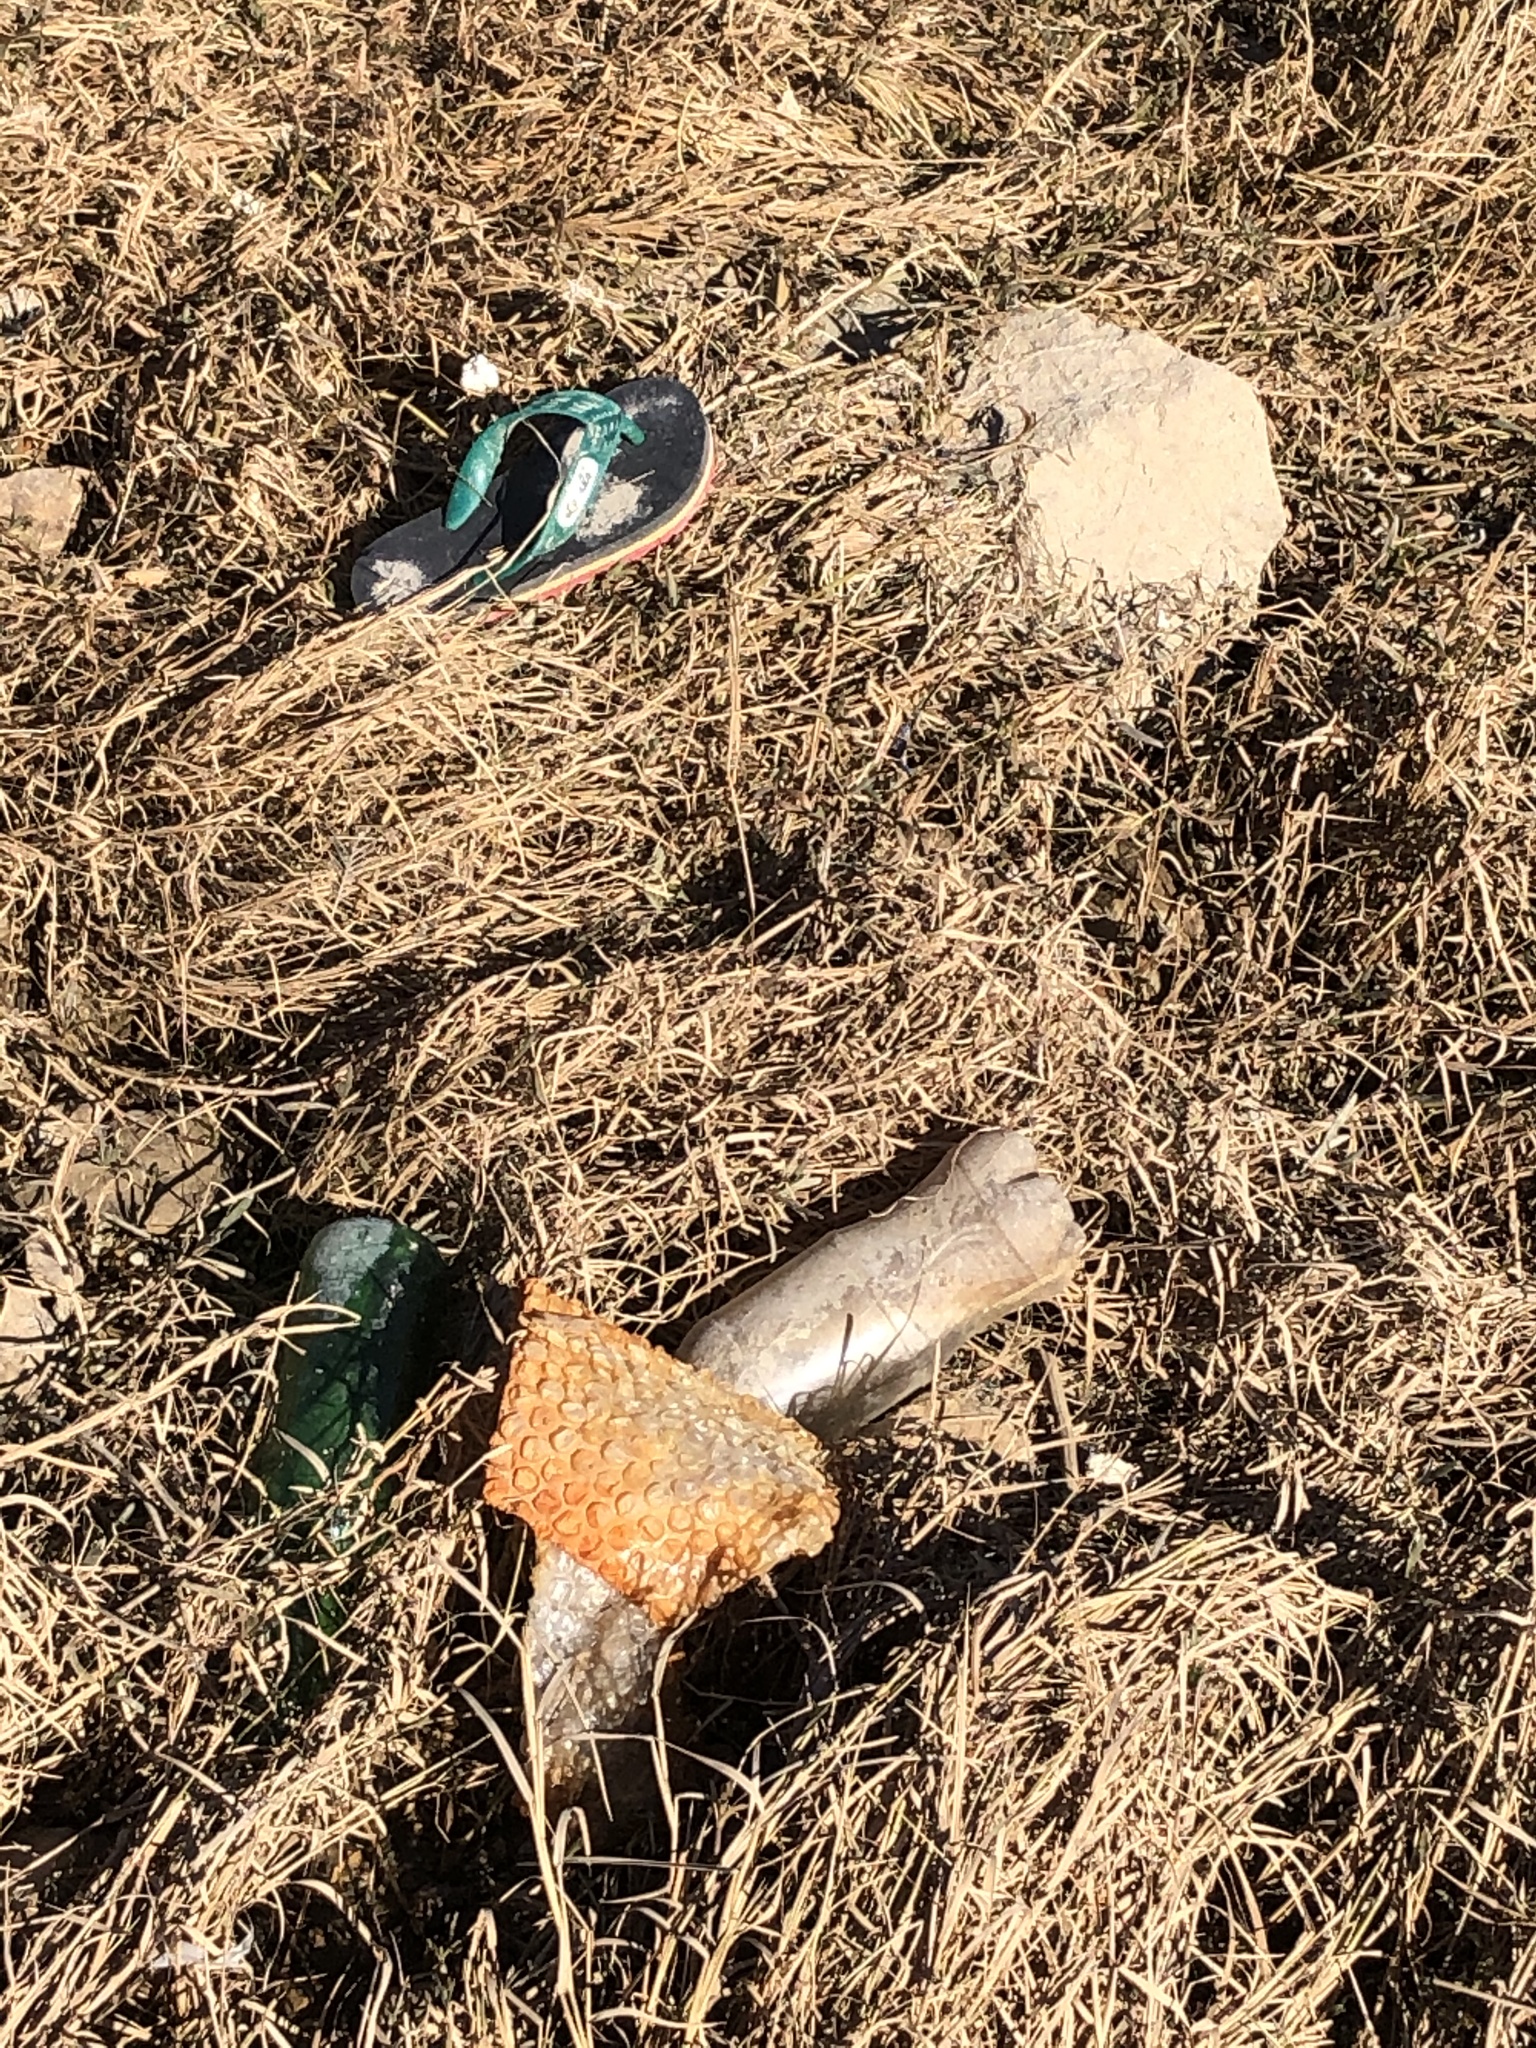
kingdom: Animalia
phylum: Mollusca
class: Bivalvia
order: Mytilida
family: Mytilidae
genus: Mytilus
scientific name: Mytilus californianus
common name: California mussel
